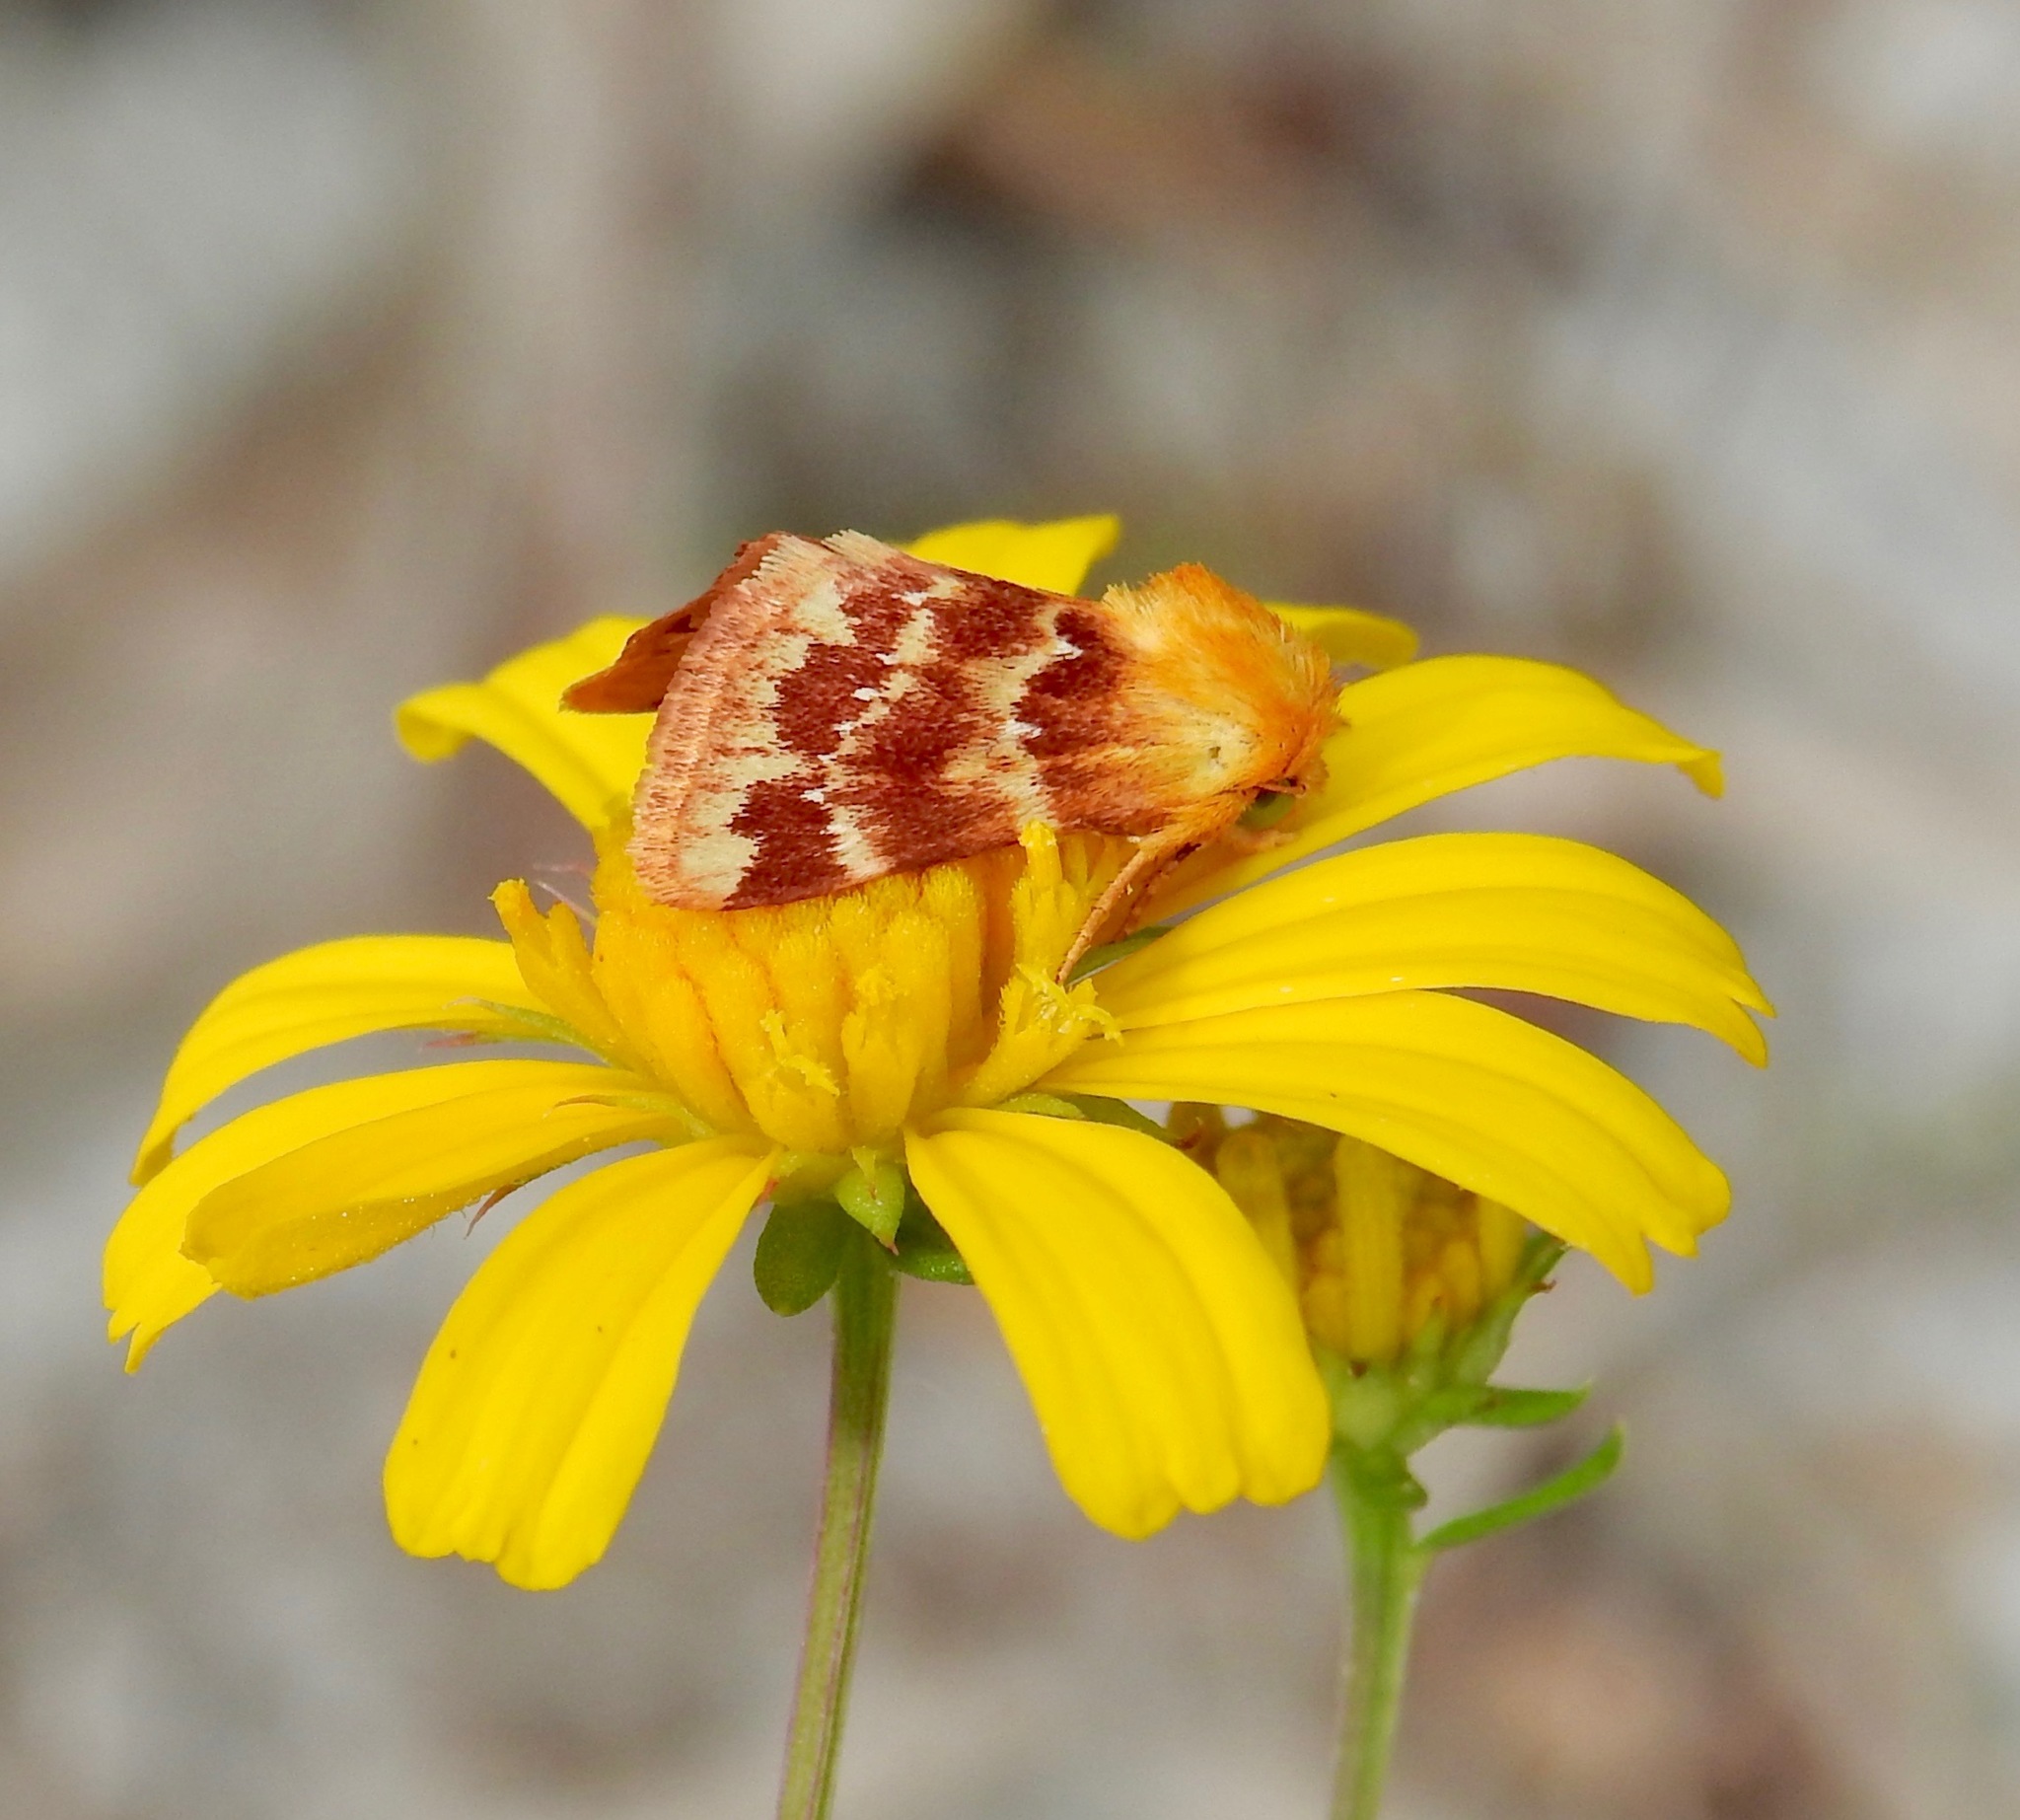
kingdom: Animalia
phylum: Arthropoda
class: Insecta
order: Lepidoptera
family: Noctuidae
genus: Schinia
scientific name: Schinia fulleri
